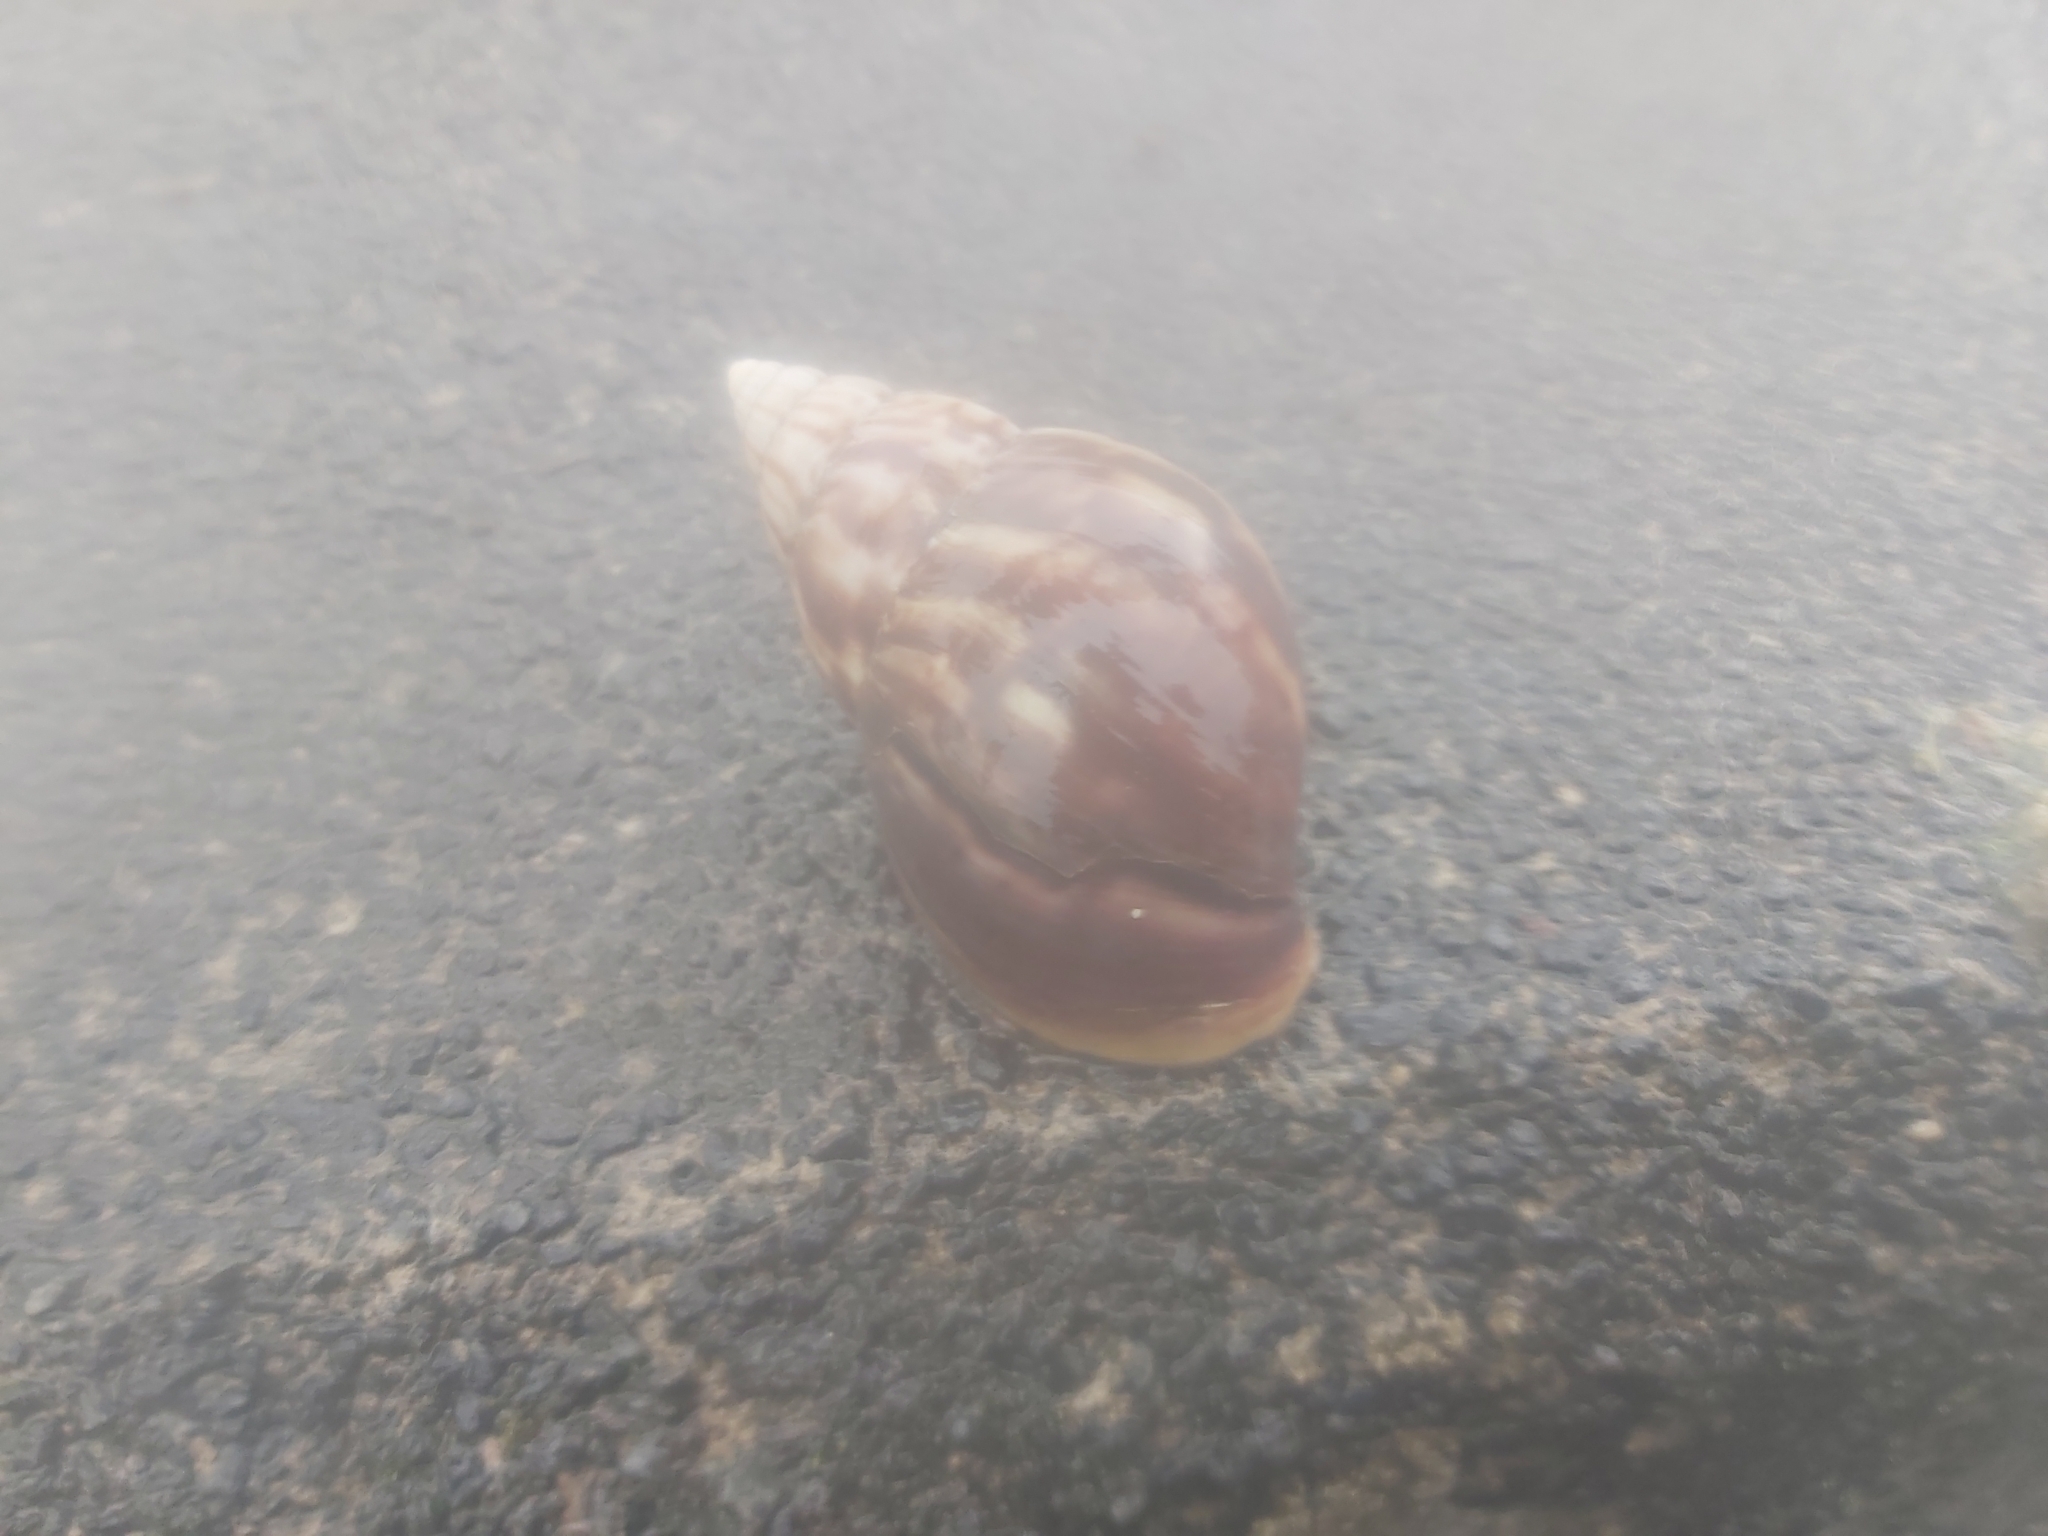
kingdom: Animalia
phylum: Mollusca
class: Gastropoda
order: Stylommatophora
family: Achatinidae
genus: Lissachatina
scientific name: Lissachatina fulica
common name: Giant african snail
